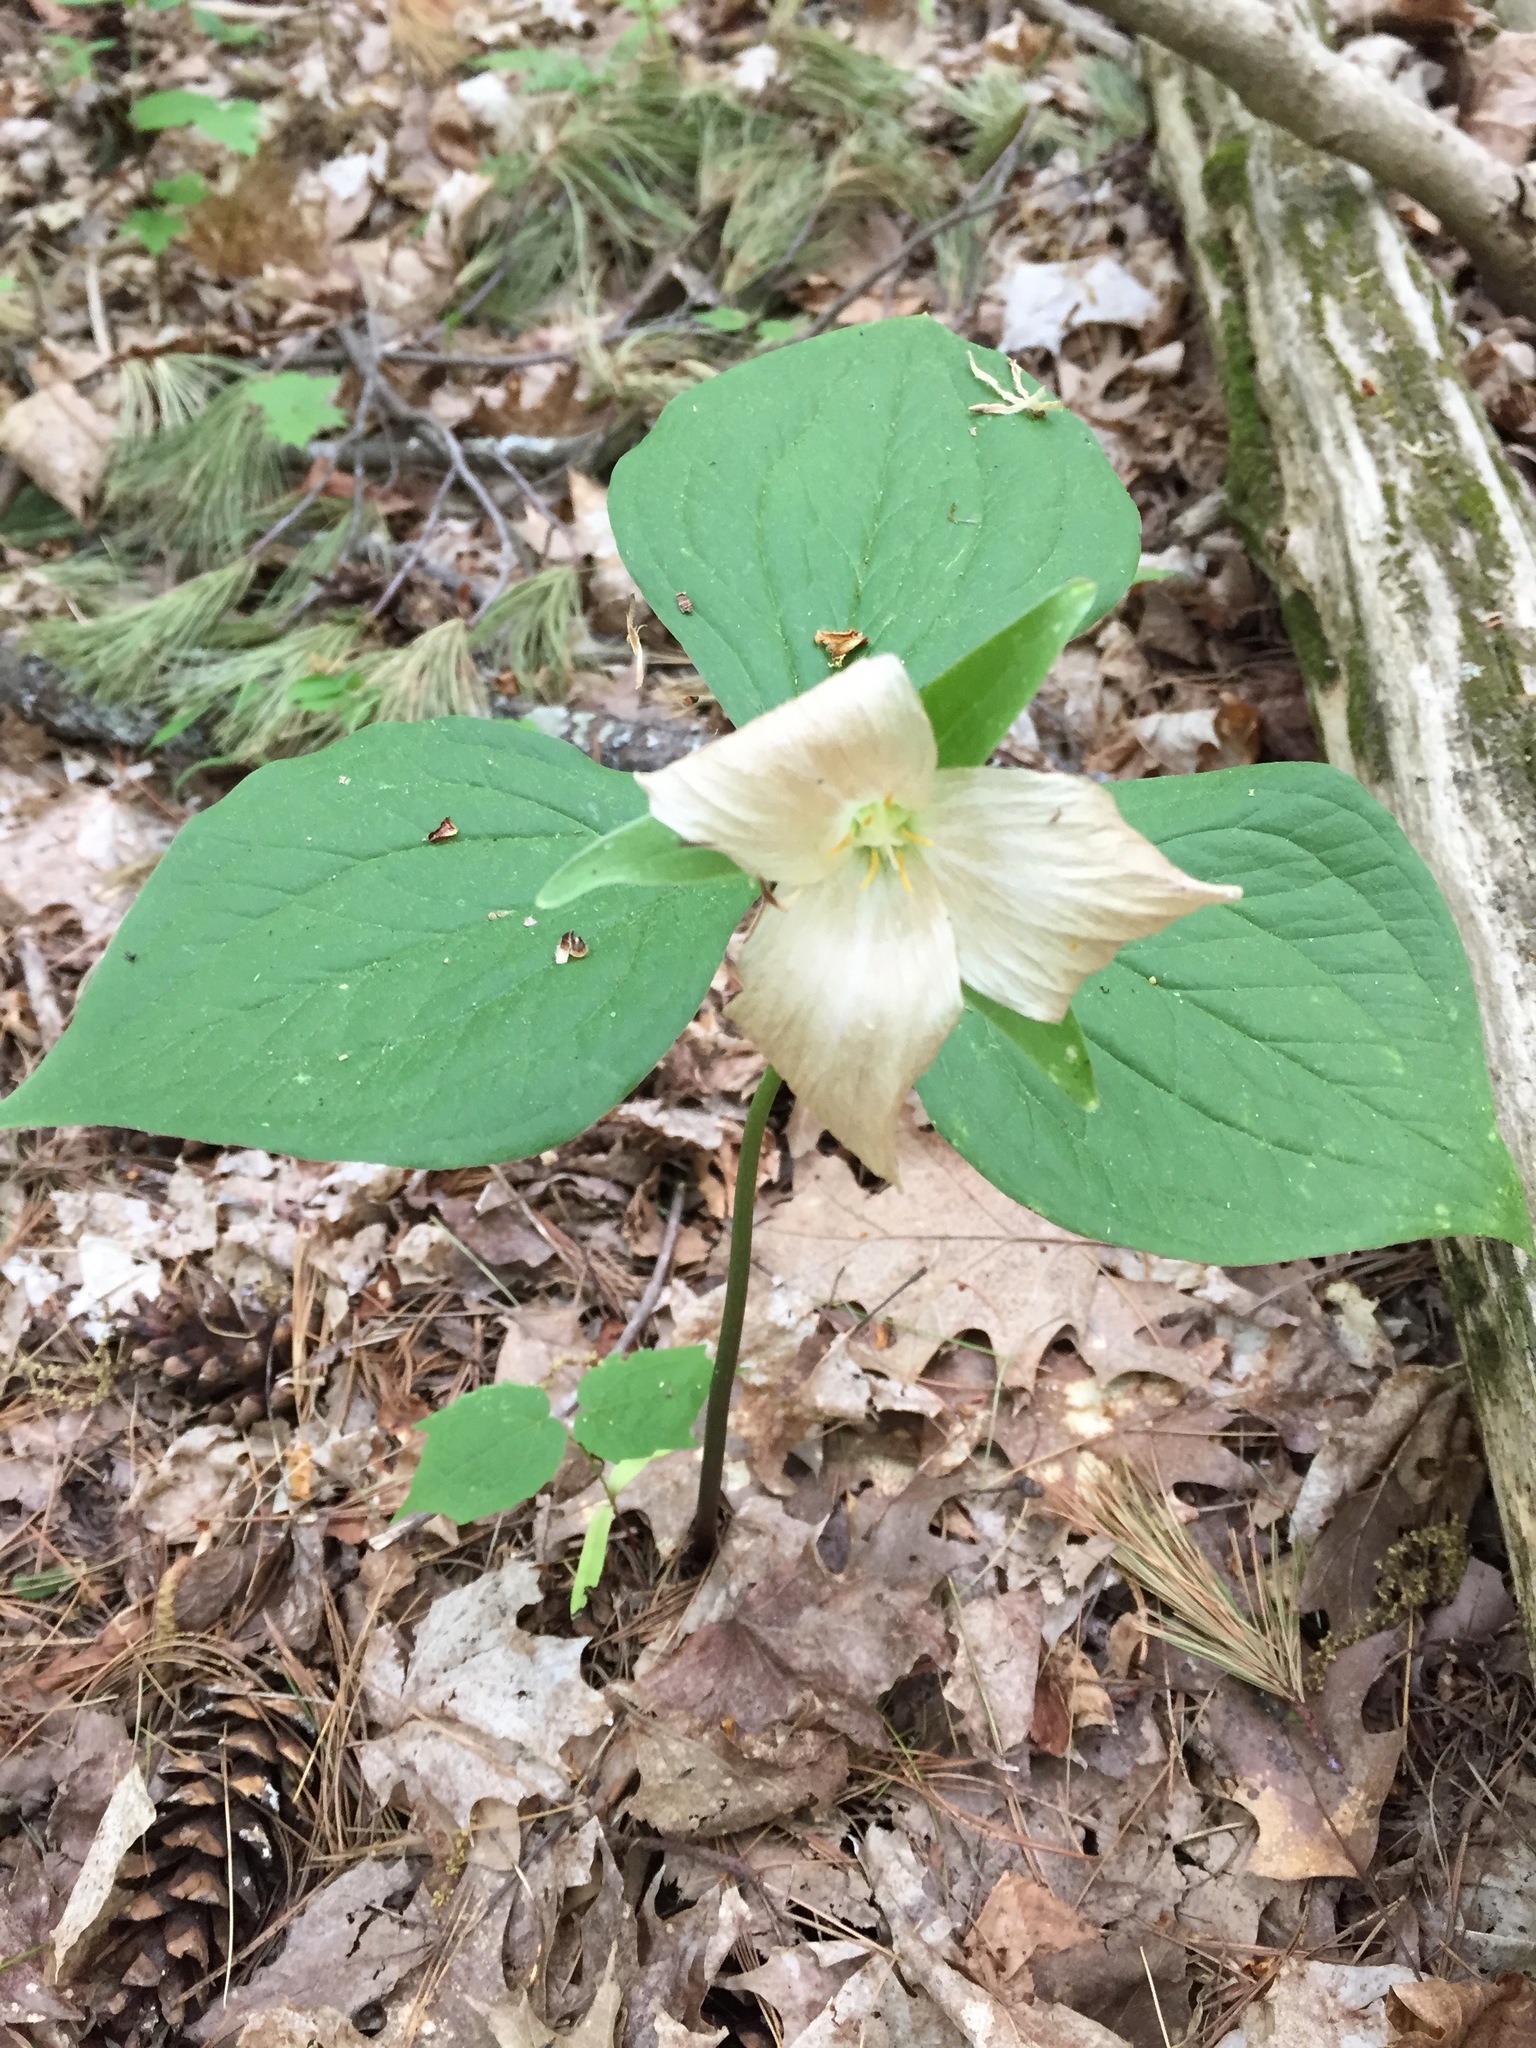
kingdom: Plantae
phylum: Tracheophyta
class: Liliopsida
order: Liliales
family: Melanthiaceae
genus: Trillium
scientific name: Trillium grandiflorum
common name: Great white trillium
